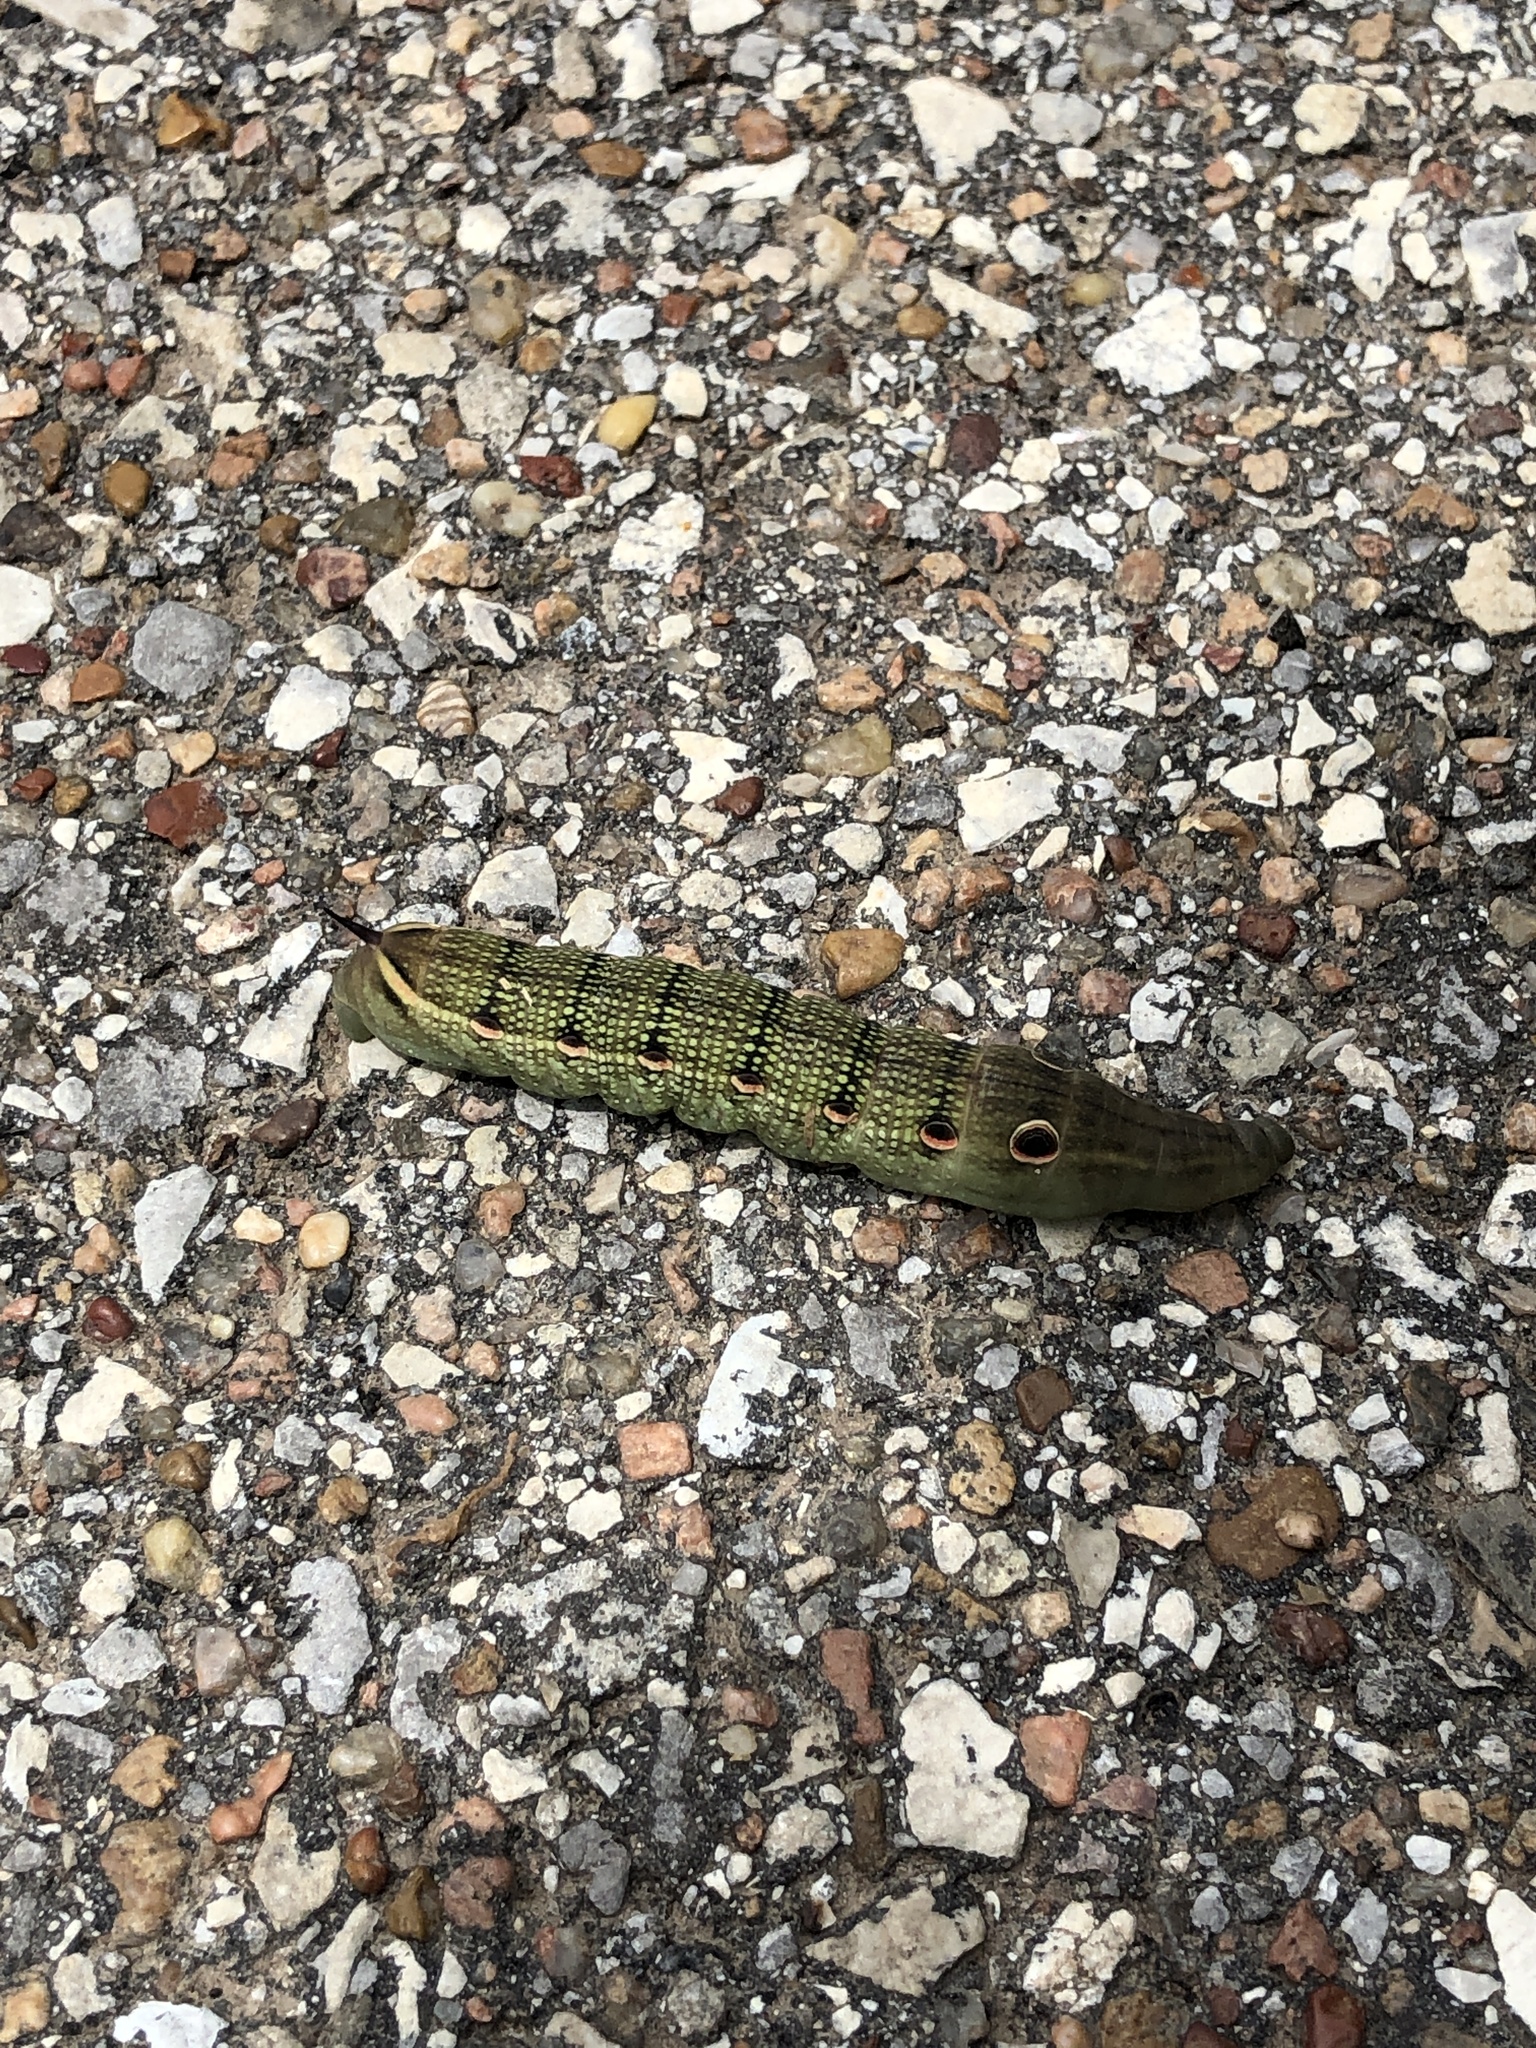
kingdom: Animalia
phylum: Arthropoda
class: Insecta
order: Lepidoptera
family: Sphingidae
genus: Xylophanes
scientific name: Xylophanes tersa
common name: Tersa sphinx
